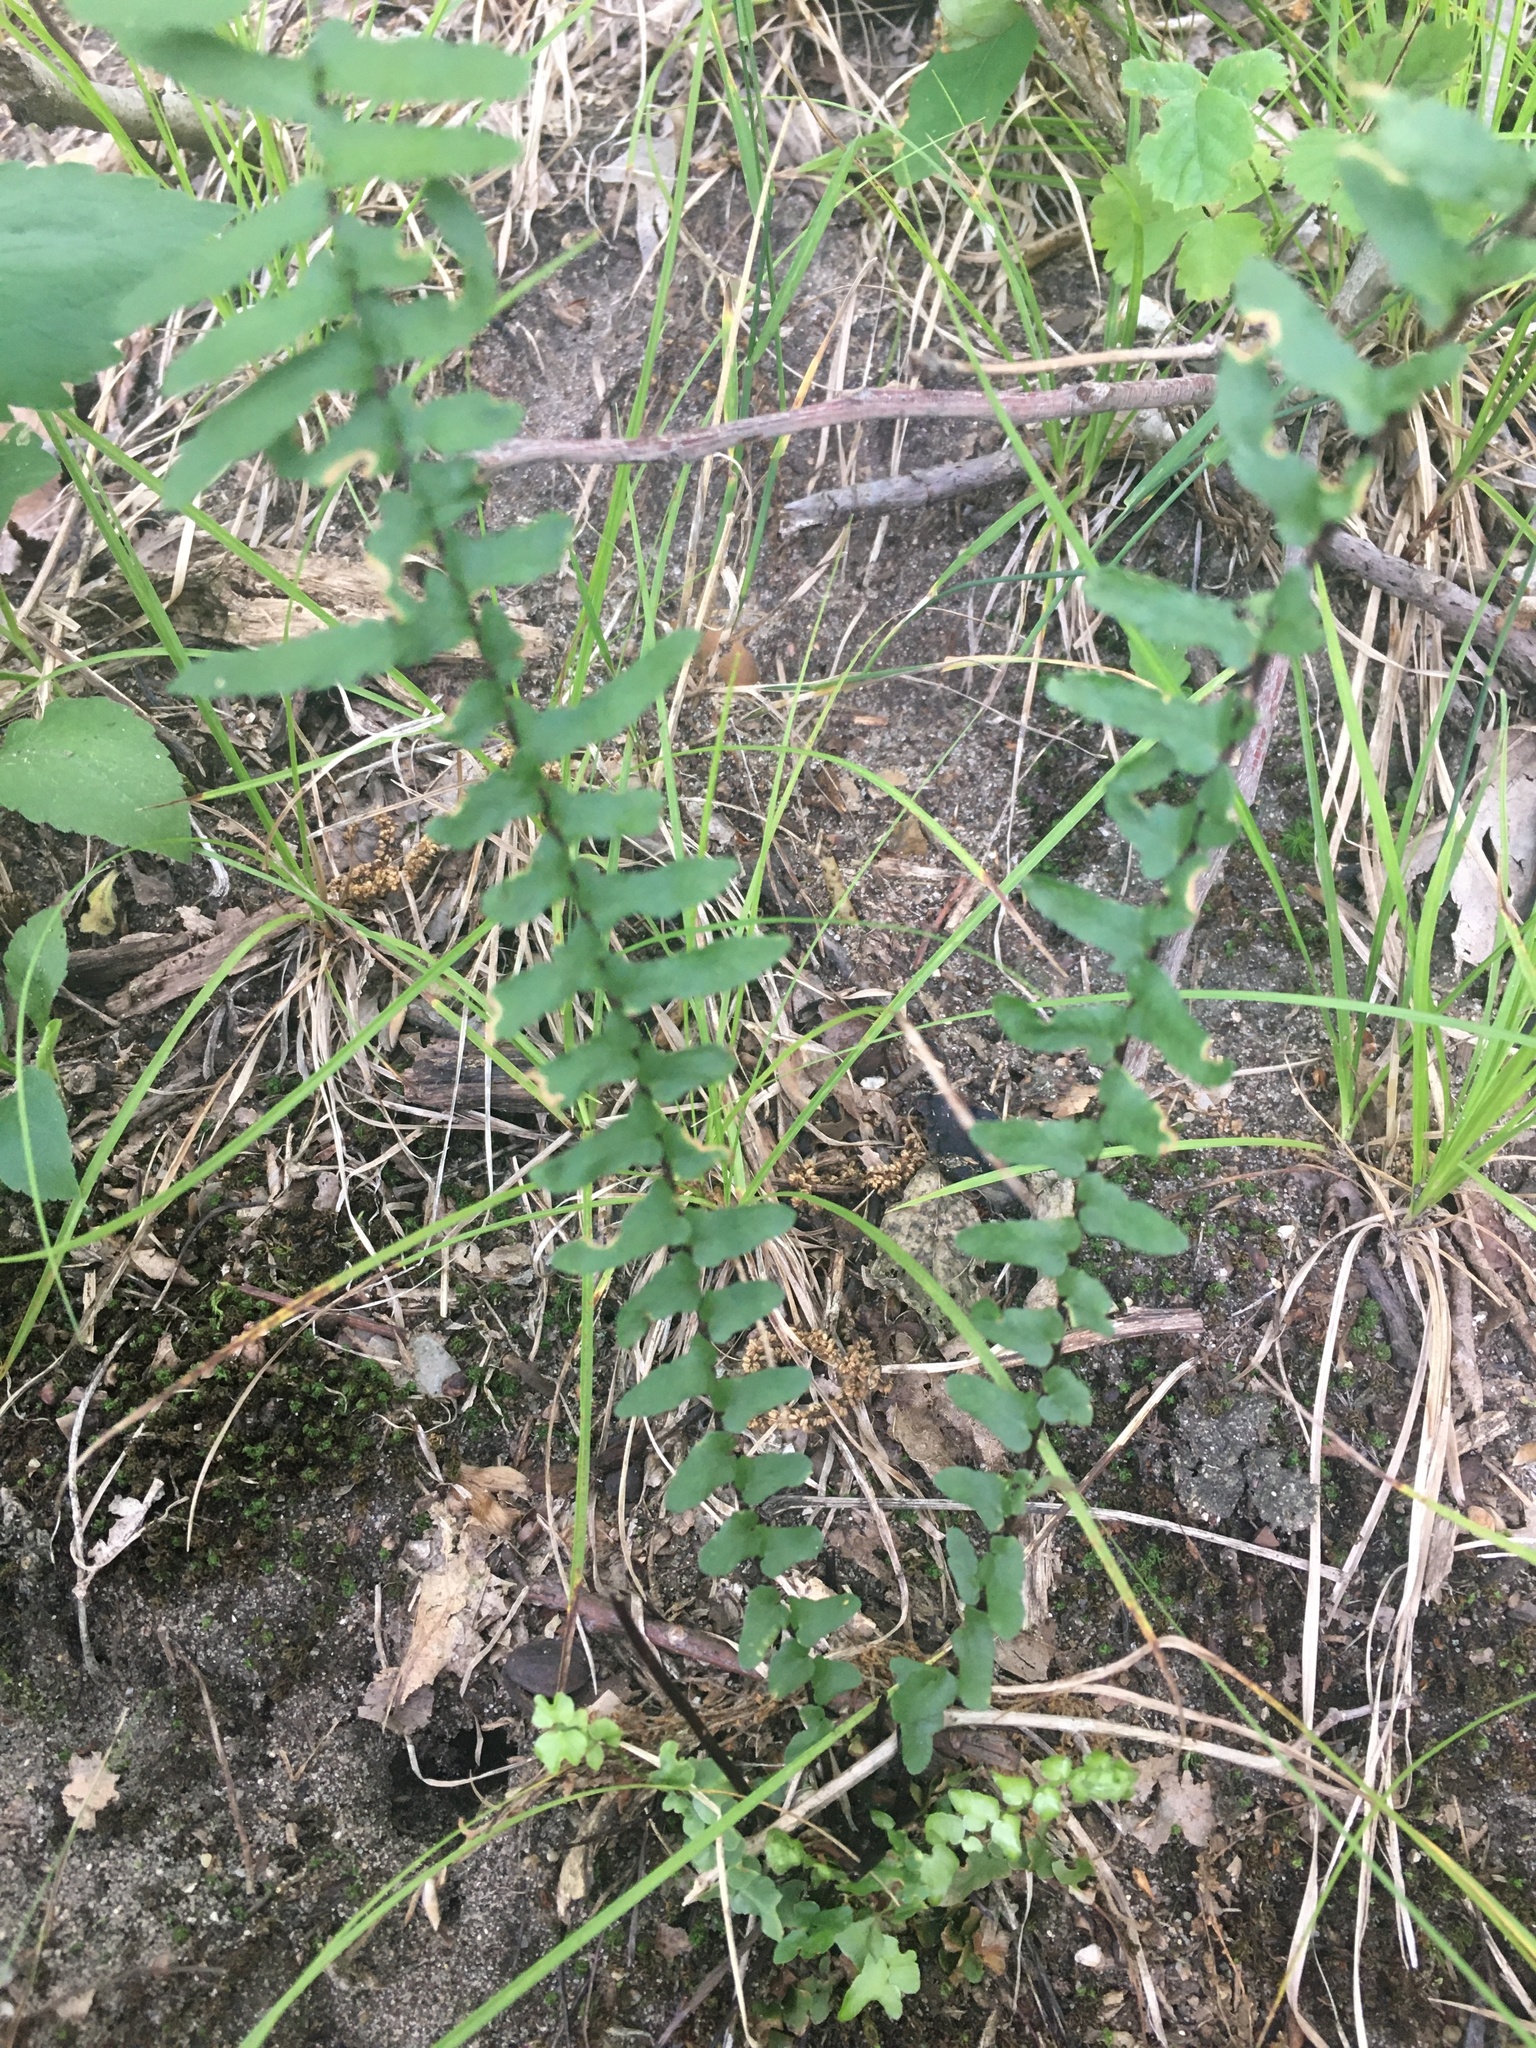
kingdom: Plantae
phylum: Tracheophyta
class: Polypodiopsida
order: Polypodiales
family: Aspleniaceae
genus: Asplenium
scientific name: Asplenium platyneuron
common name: Ebony spleenwort
